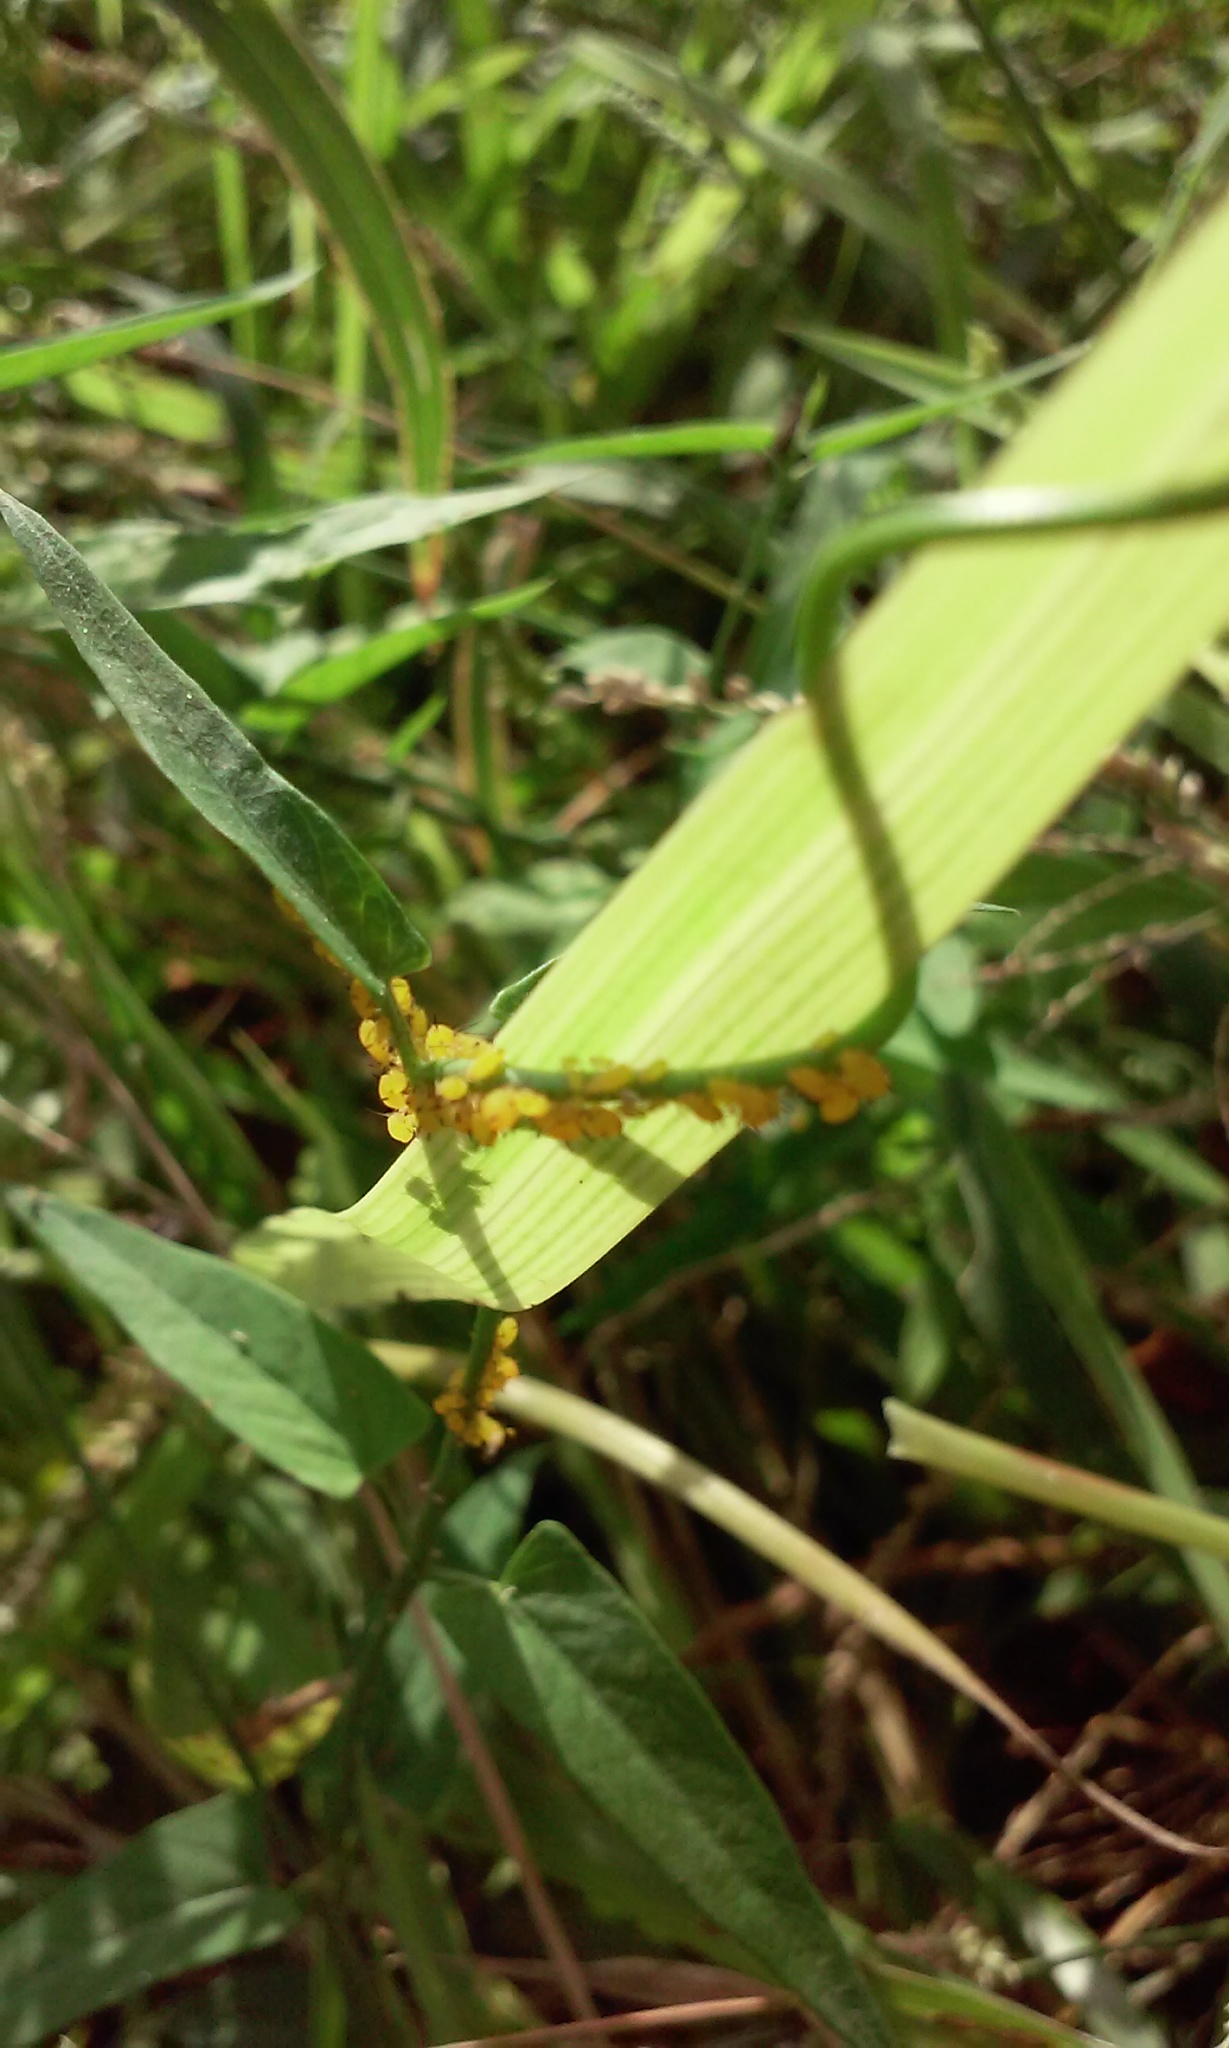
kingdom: Animalia
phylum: Arthropoda
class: Insecta
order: Hemiptera
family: Aphididae
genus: Aphis
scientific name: Aphis nerii
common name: Oleander aphid
